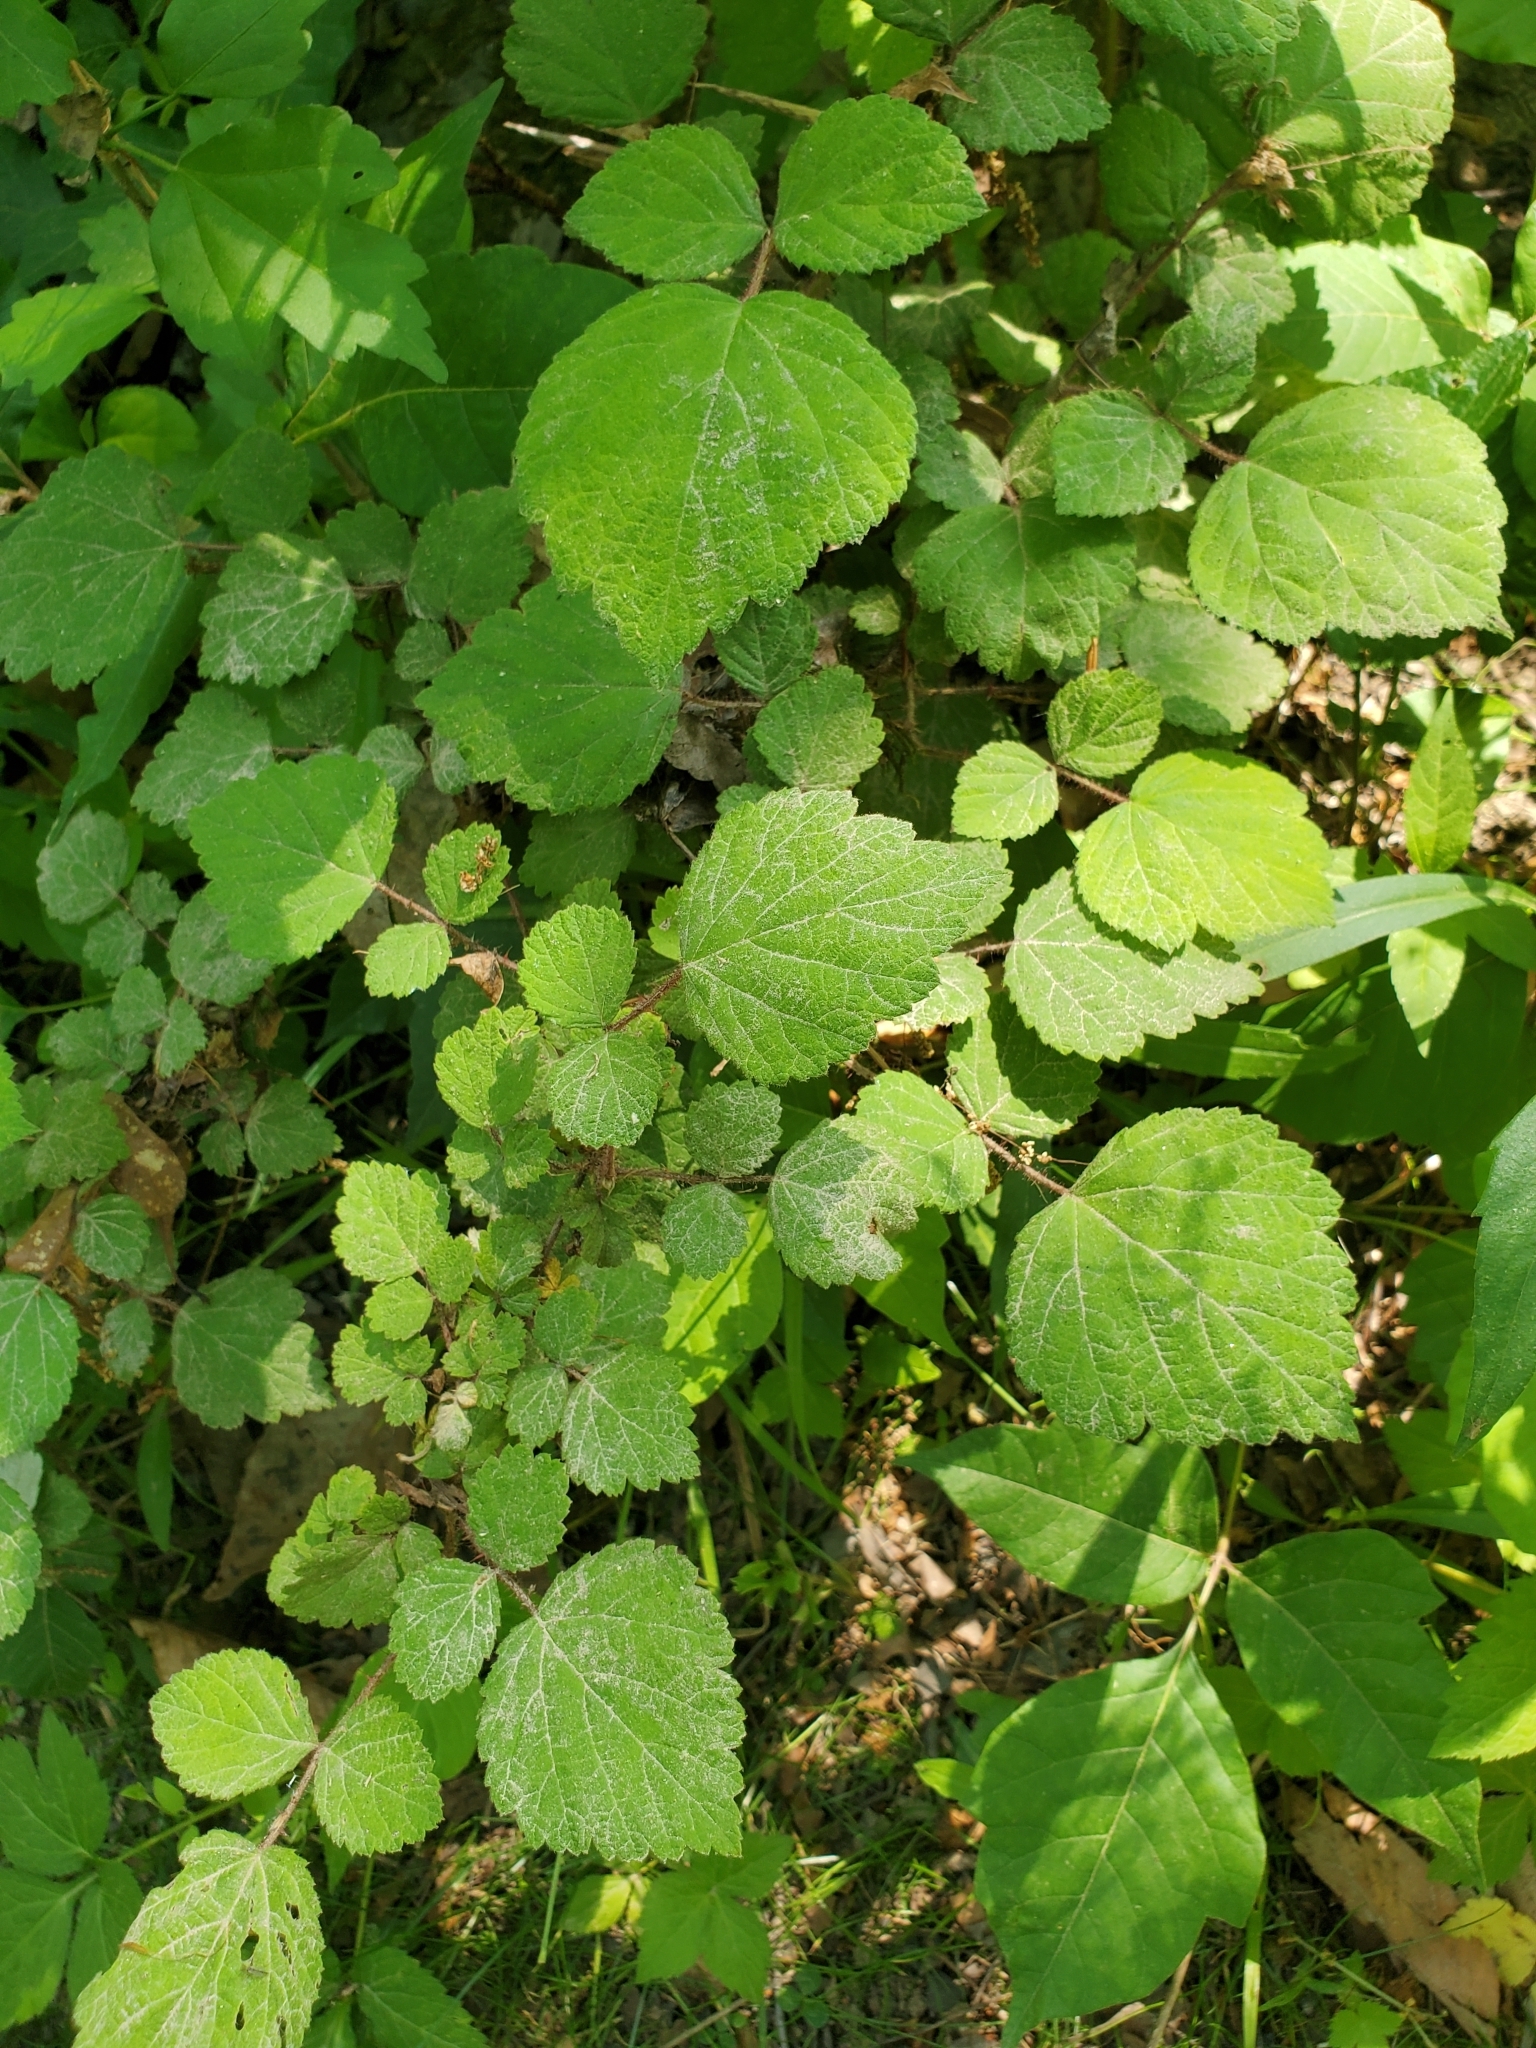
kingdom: Plantae
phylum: Tracheophyta
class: Magnoliopsida
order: Rosales
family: Rosaceae
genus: Rubus
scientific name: Rubus phoenicolasius
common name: Japanese wineberry
